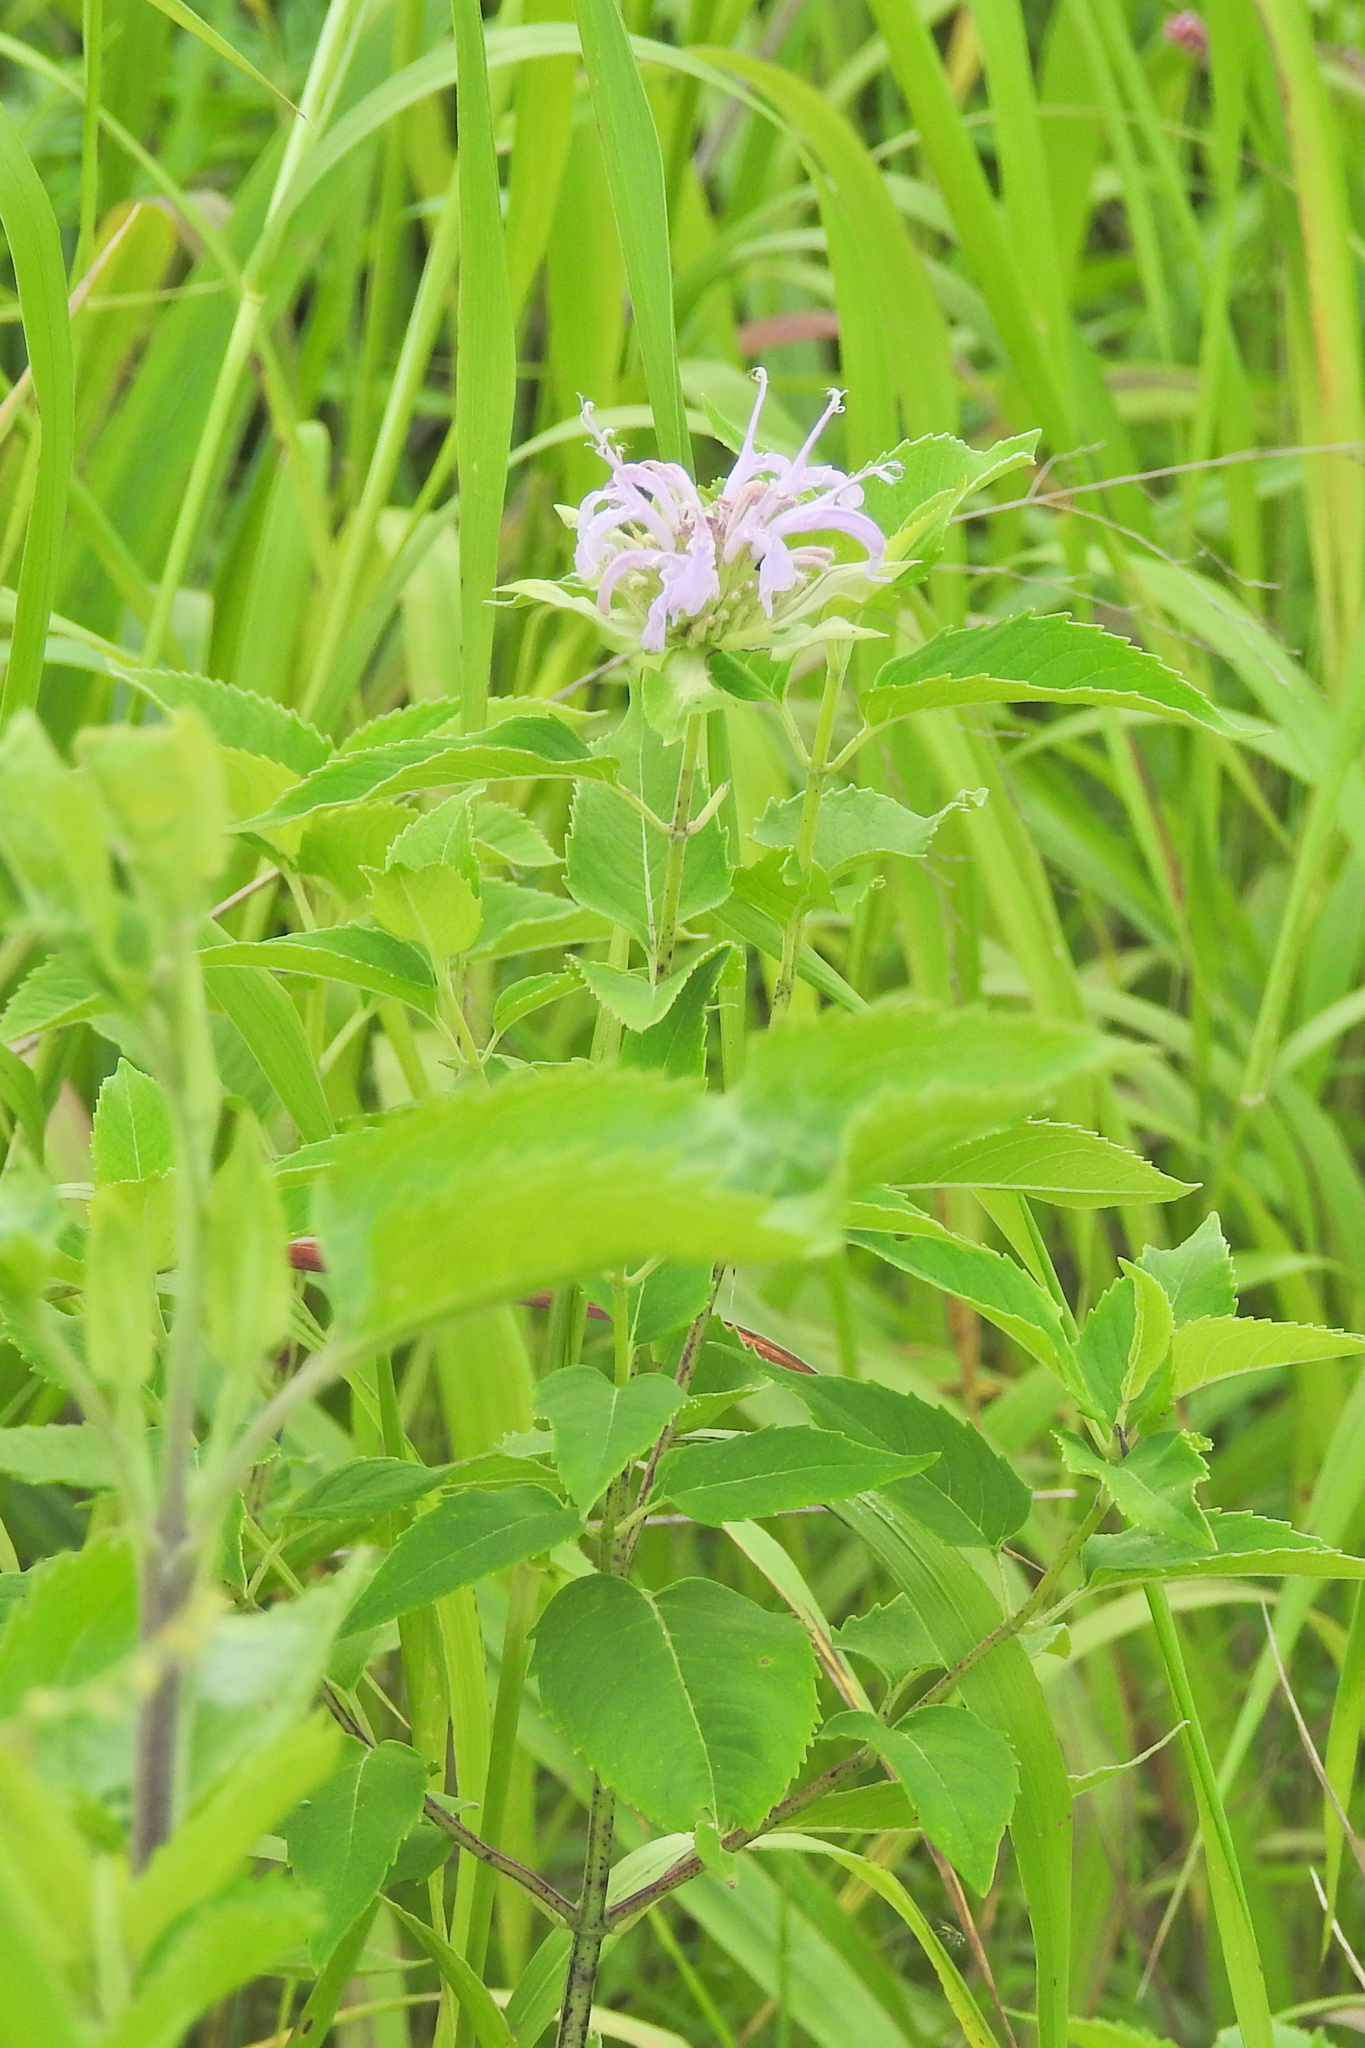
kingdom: Plantae
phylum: Tracheophyta
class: Magnoliopsida
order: Lamiales
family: Lamiaceae
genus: Monarda
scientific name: Monarda fistulosa
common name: Purple beebalm
